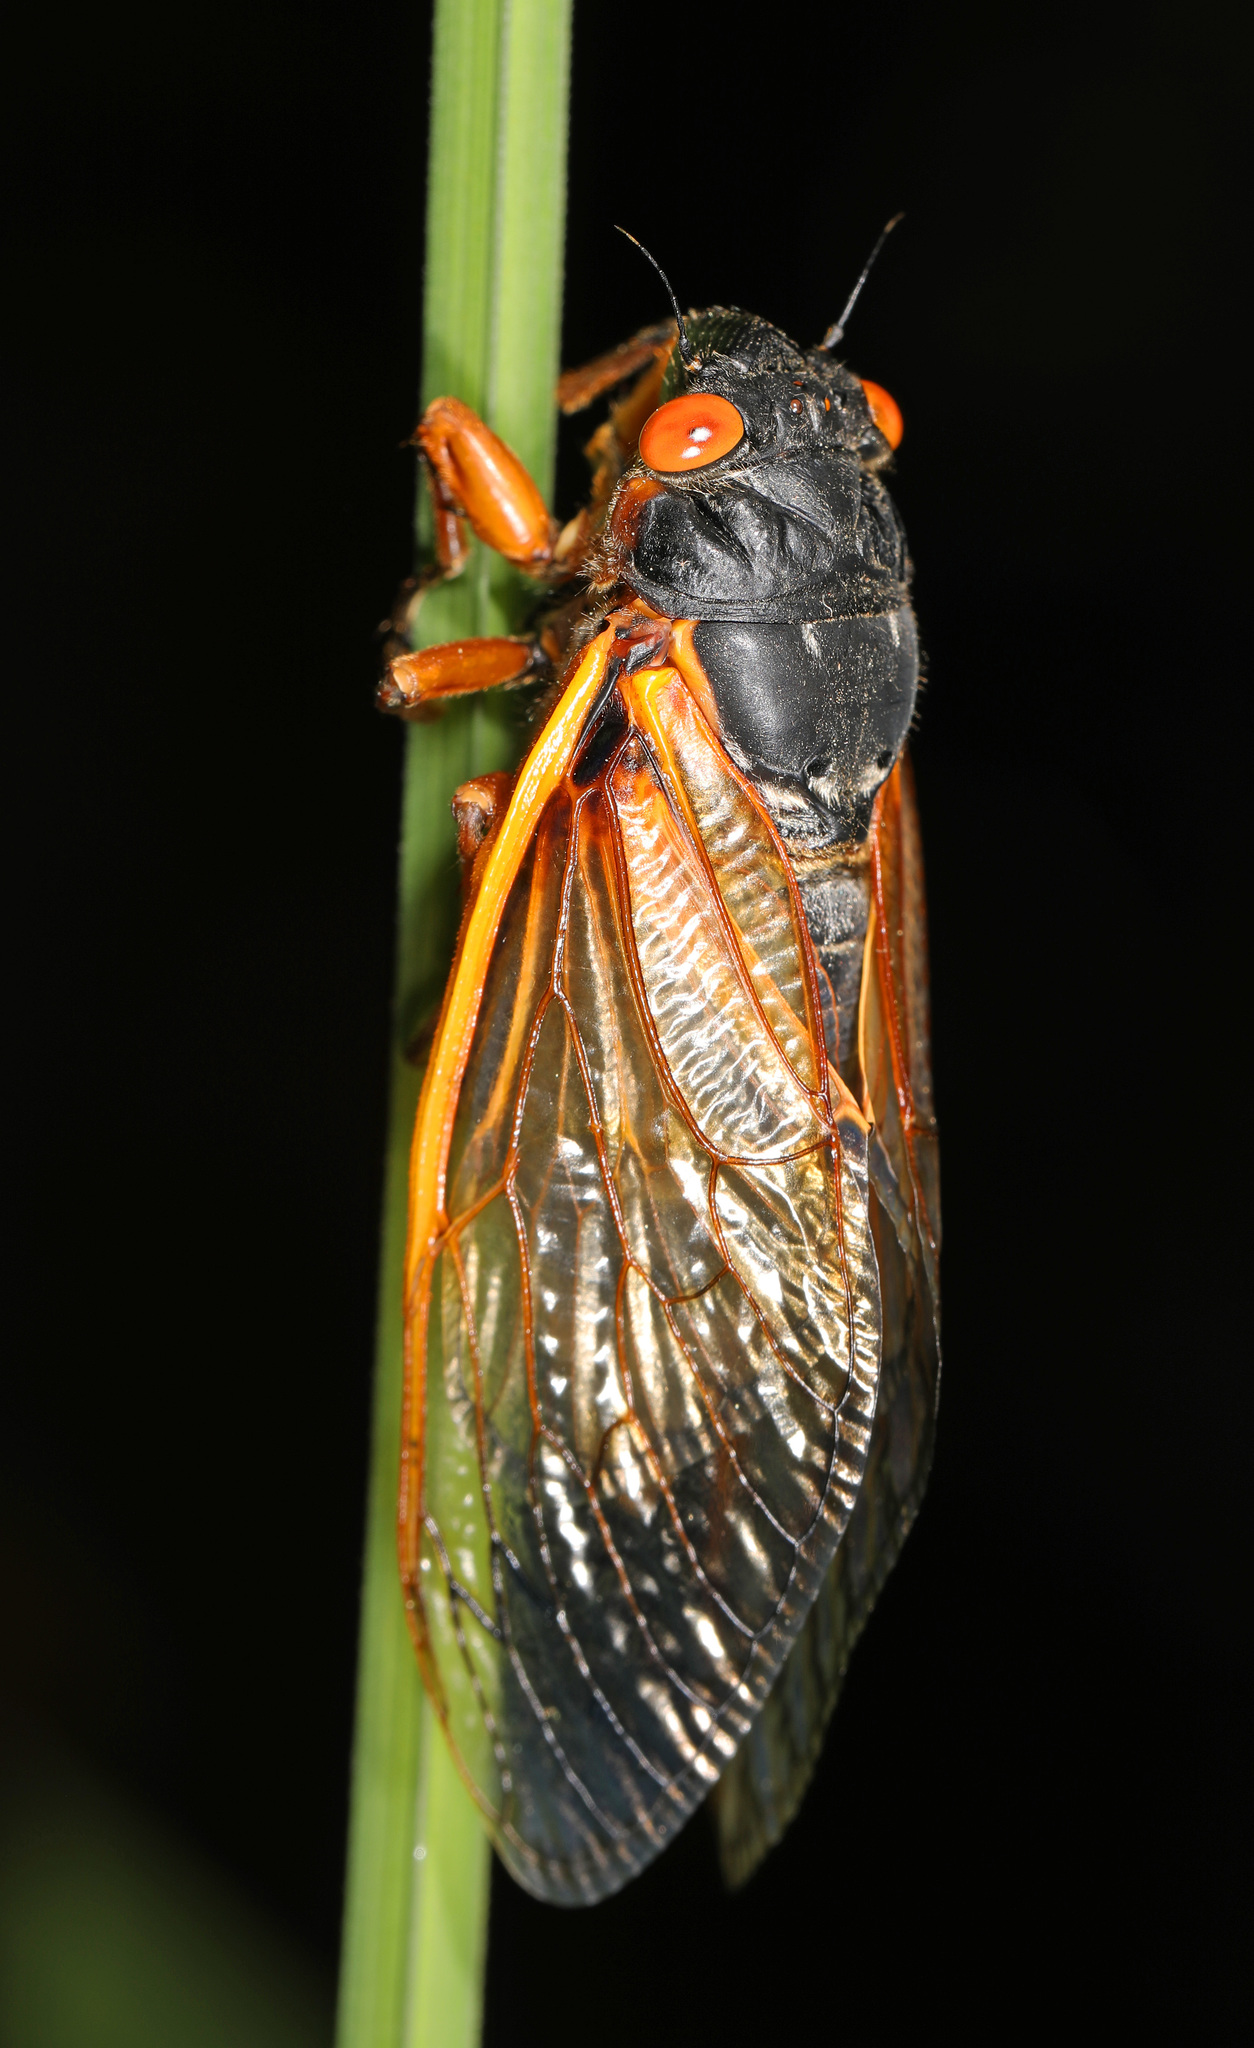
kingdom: Animalia
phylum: Arthropoda
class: Insecta
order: Hemiptera
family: Cicadidae
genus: Magicicada
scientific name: Magicicada septendecim
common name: Periodical cicada
